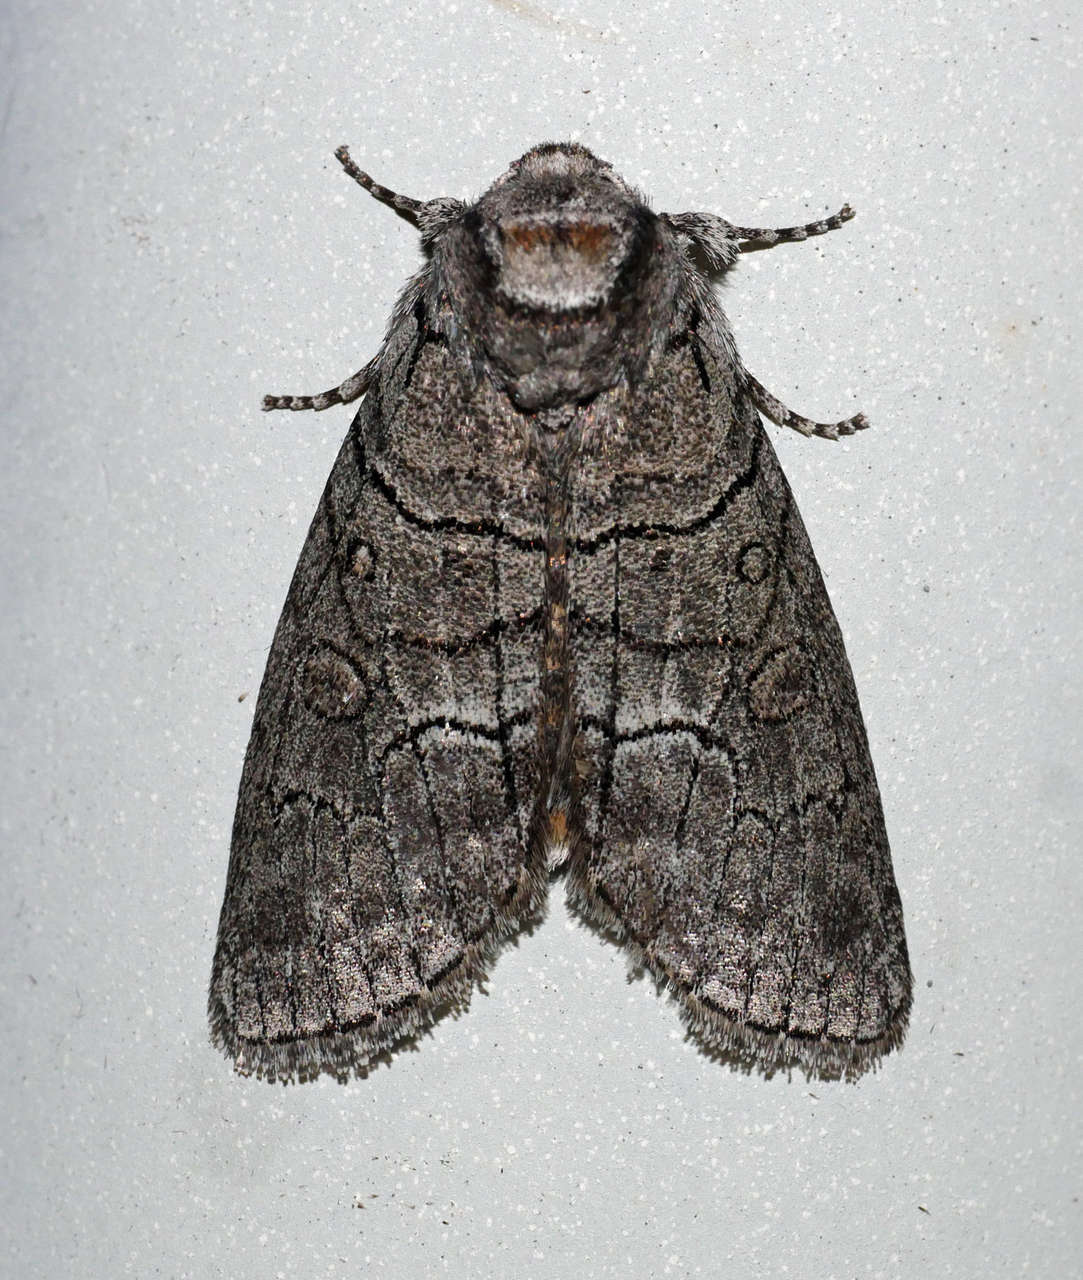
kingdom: Animalia
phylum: Arthropoda
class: Insecta
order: Lepidoptera
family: Oenosandridae
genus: Discophlebia
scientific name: Discophlebia celaena
